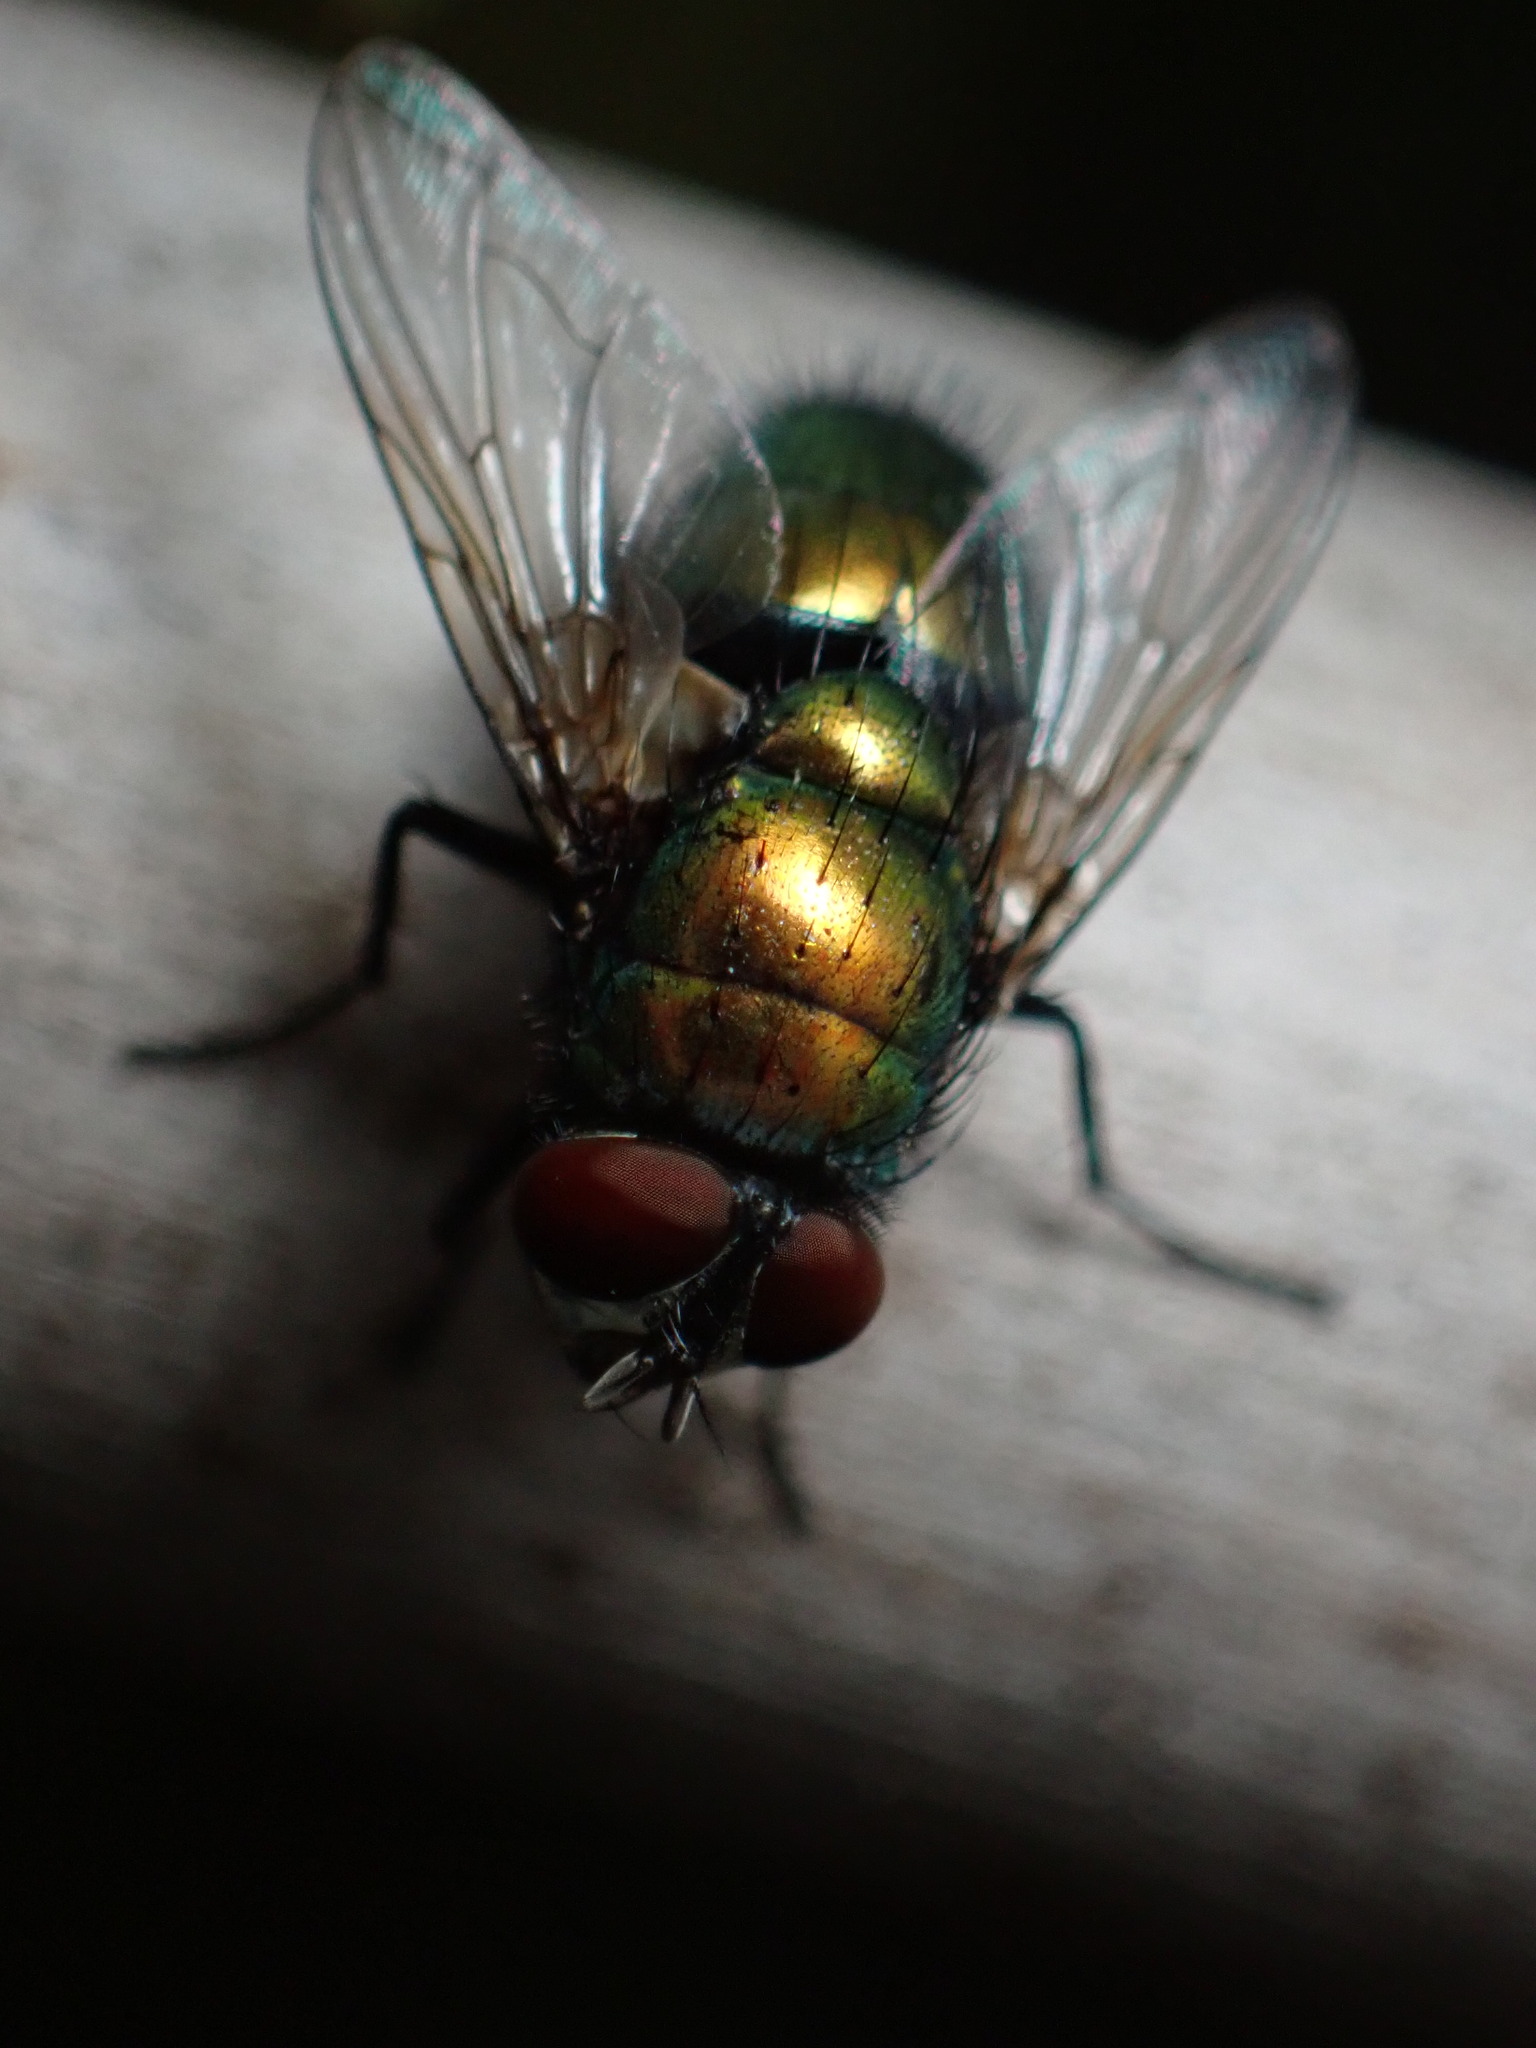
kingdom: Animalia
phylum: Arthropoda
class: Insecta
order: Diptera
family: Calliphoridae
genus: Lucilia
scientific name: Lucilia sericata
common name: Blow fly
